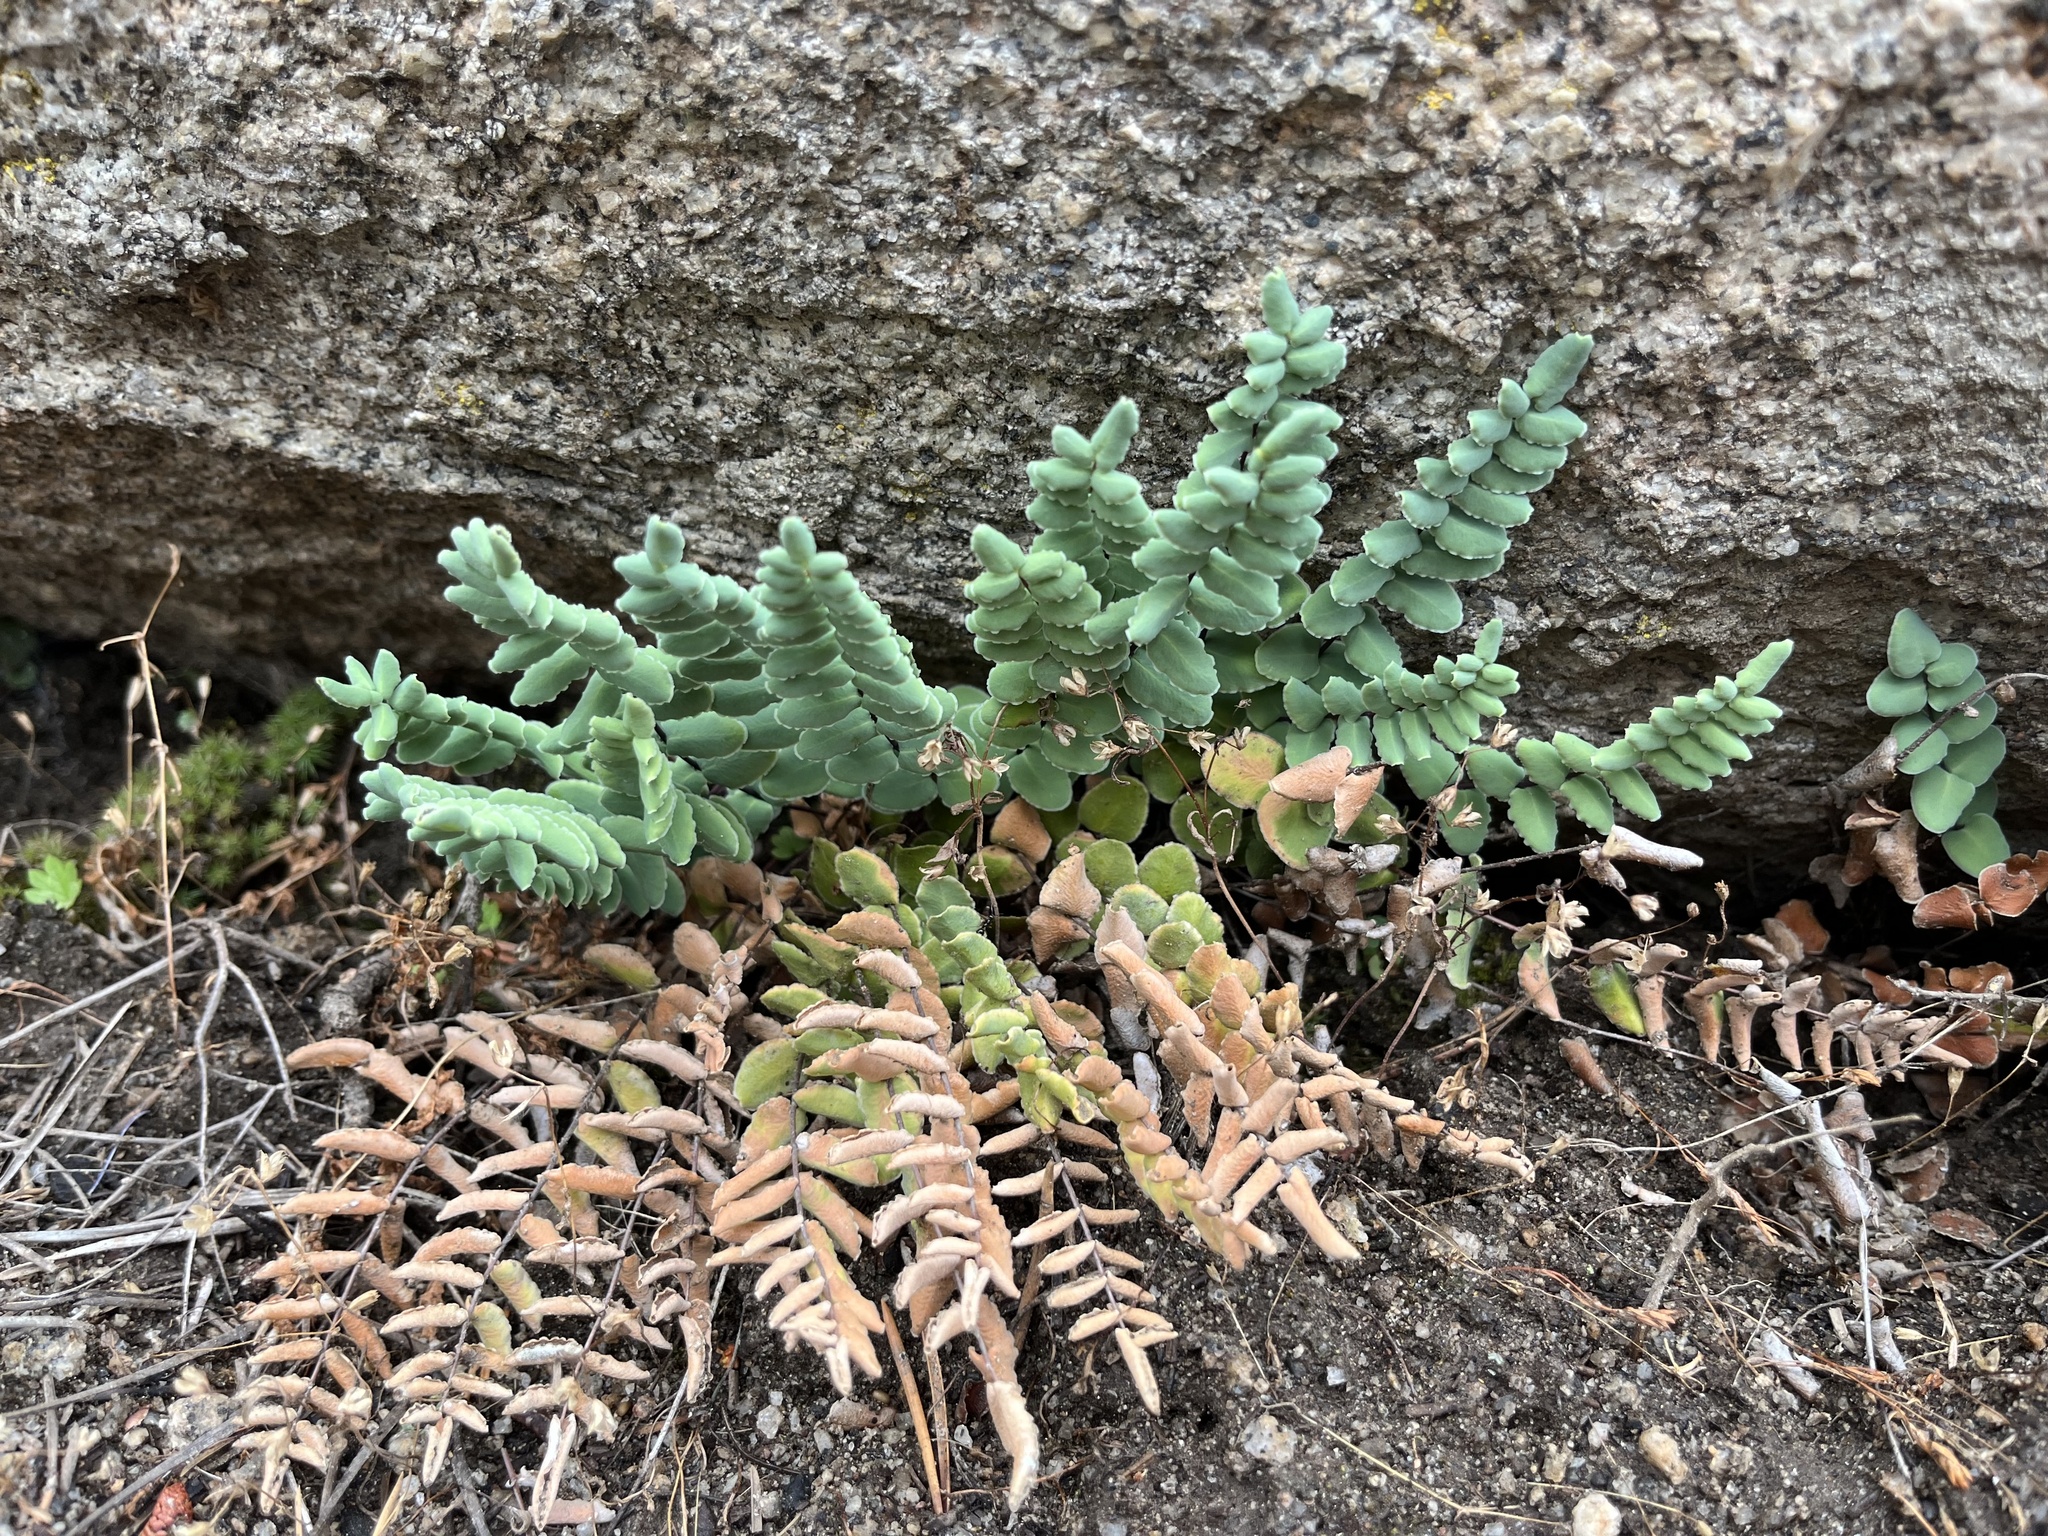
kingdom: Plantae
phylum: Tracheophyta
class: Polypodiopsida
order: Polypodiales
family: Pteridaceae
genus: Pellaea
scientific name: Pellaea bridgesii
